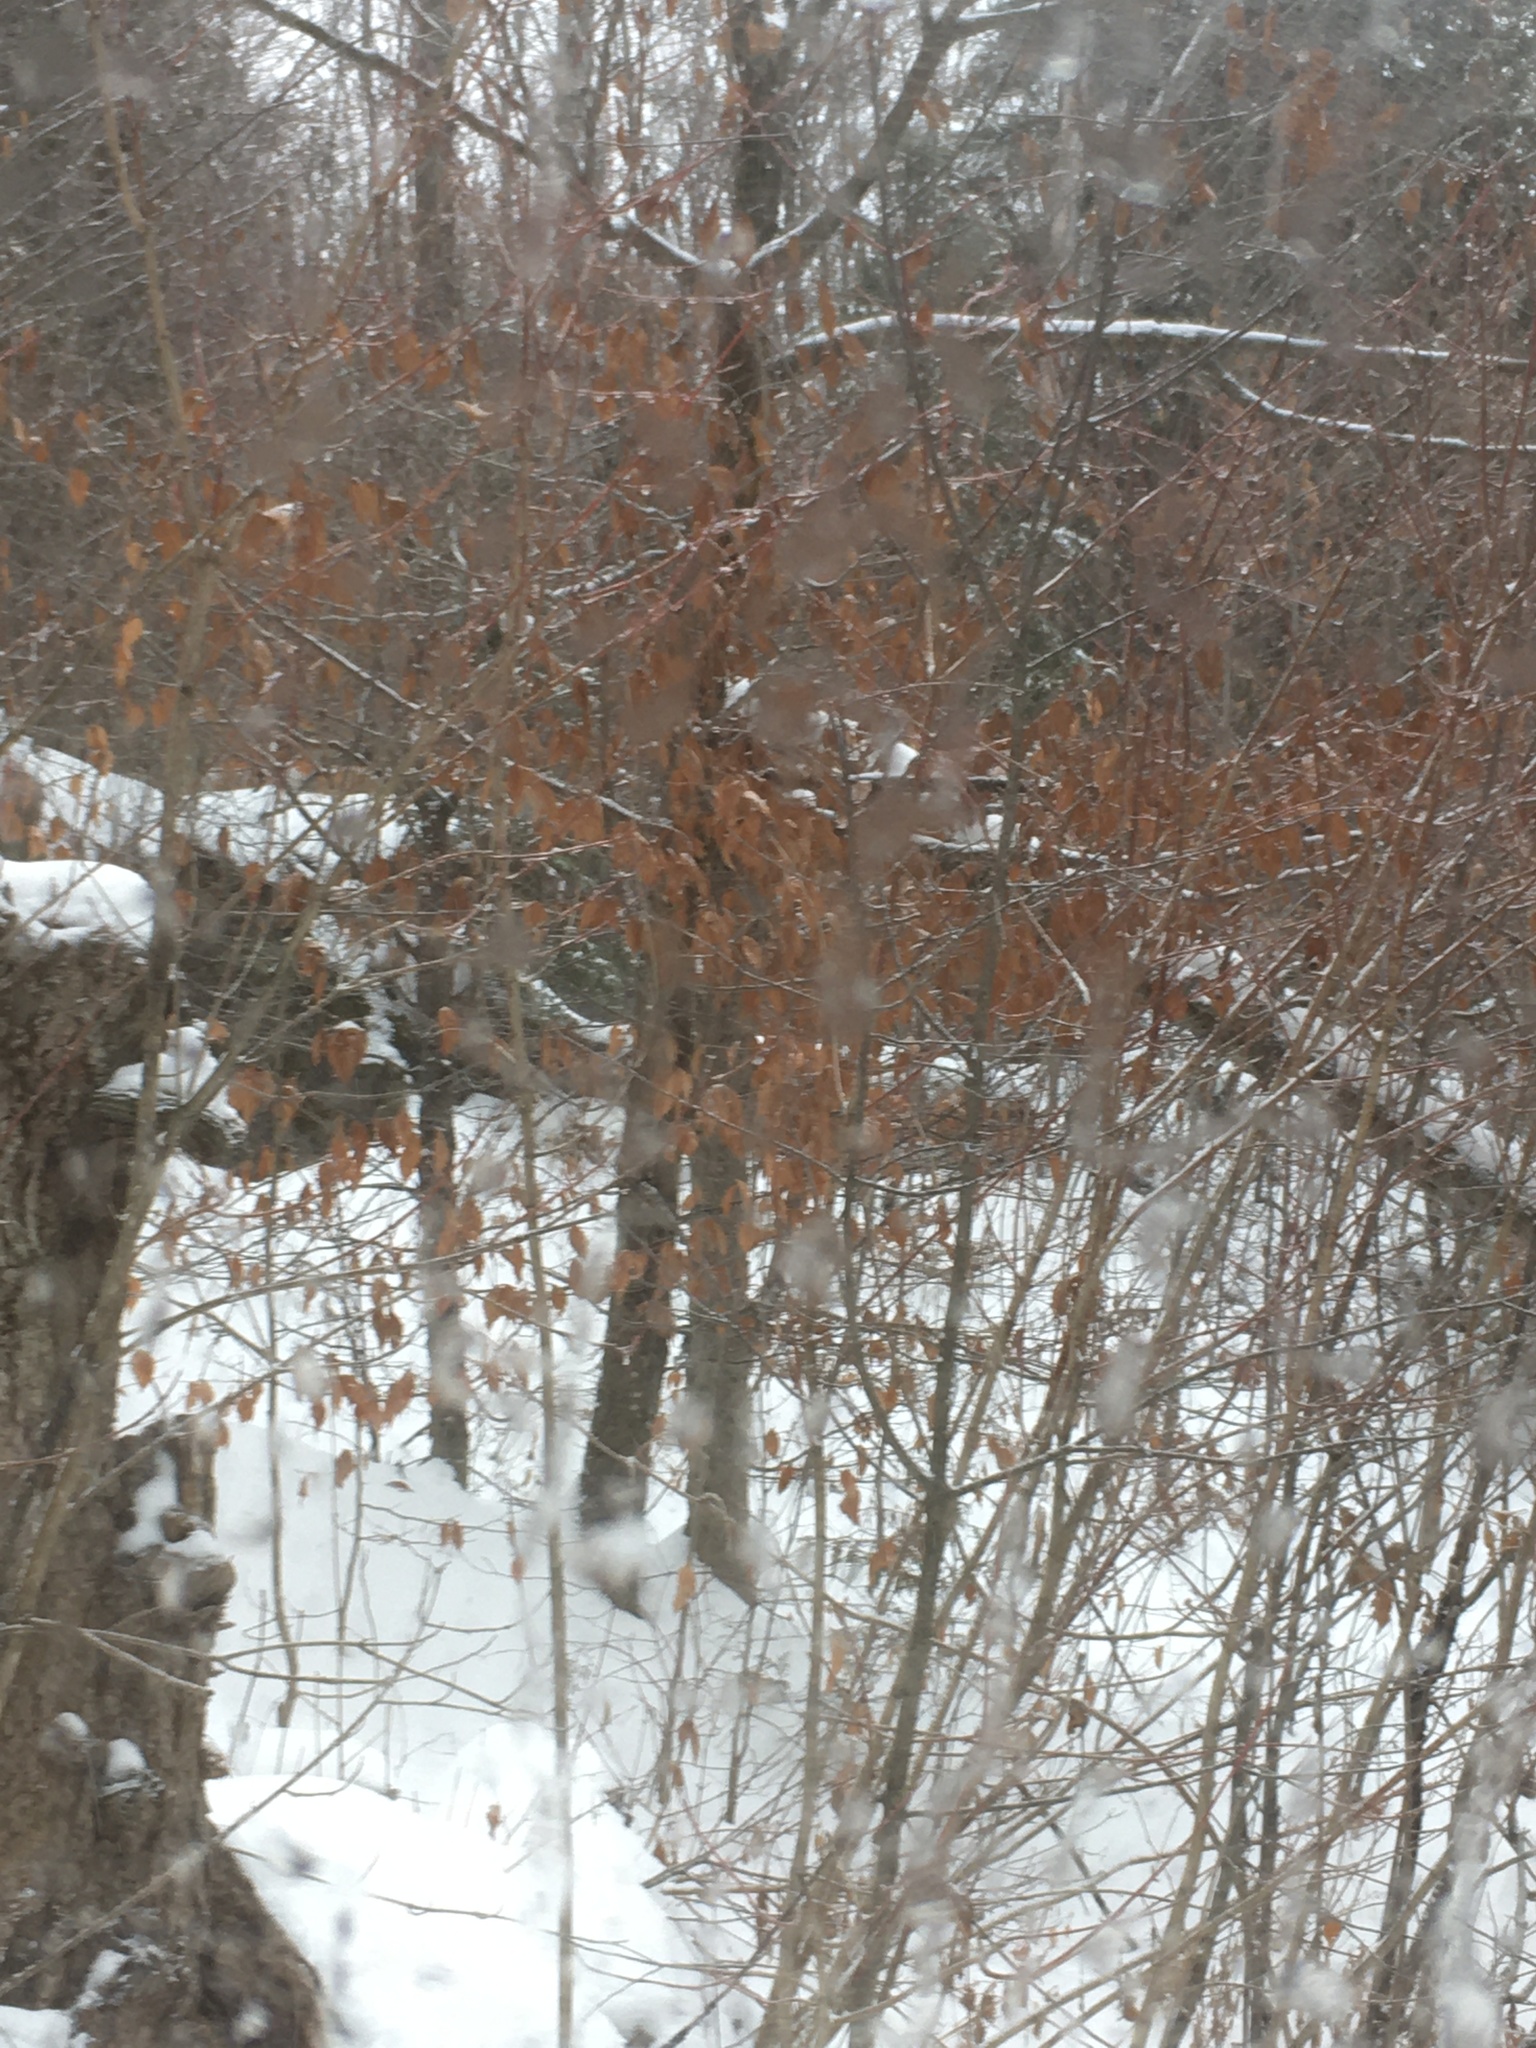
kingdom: Plantae
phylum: Tracheophyta
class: Magnoliopsida
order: Fagales
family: Fagaceae
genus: Fagus
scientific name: Fagus grandifolia
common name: American beech
